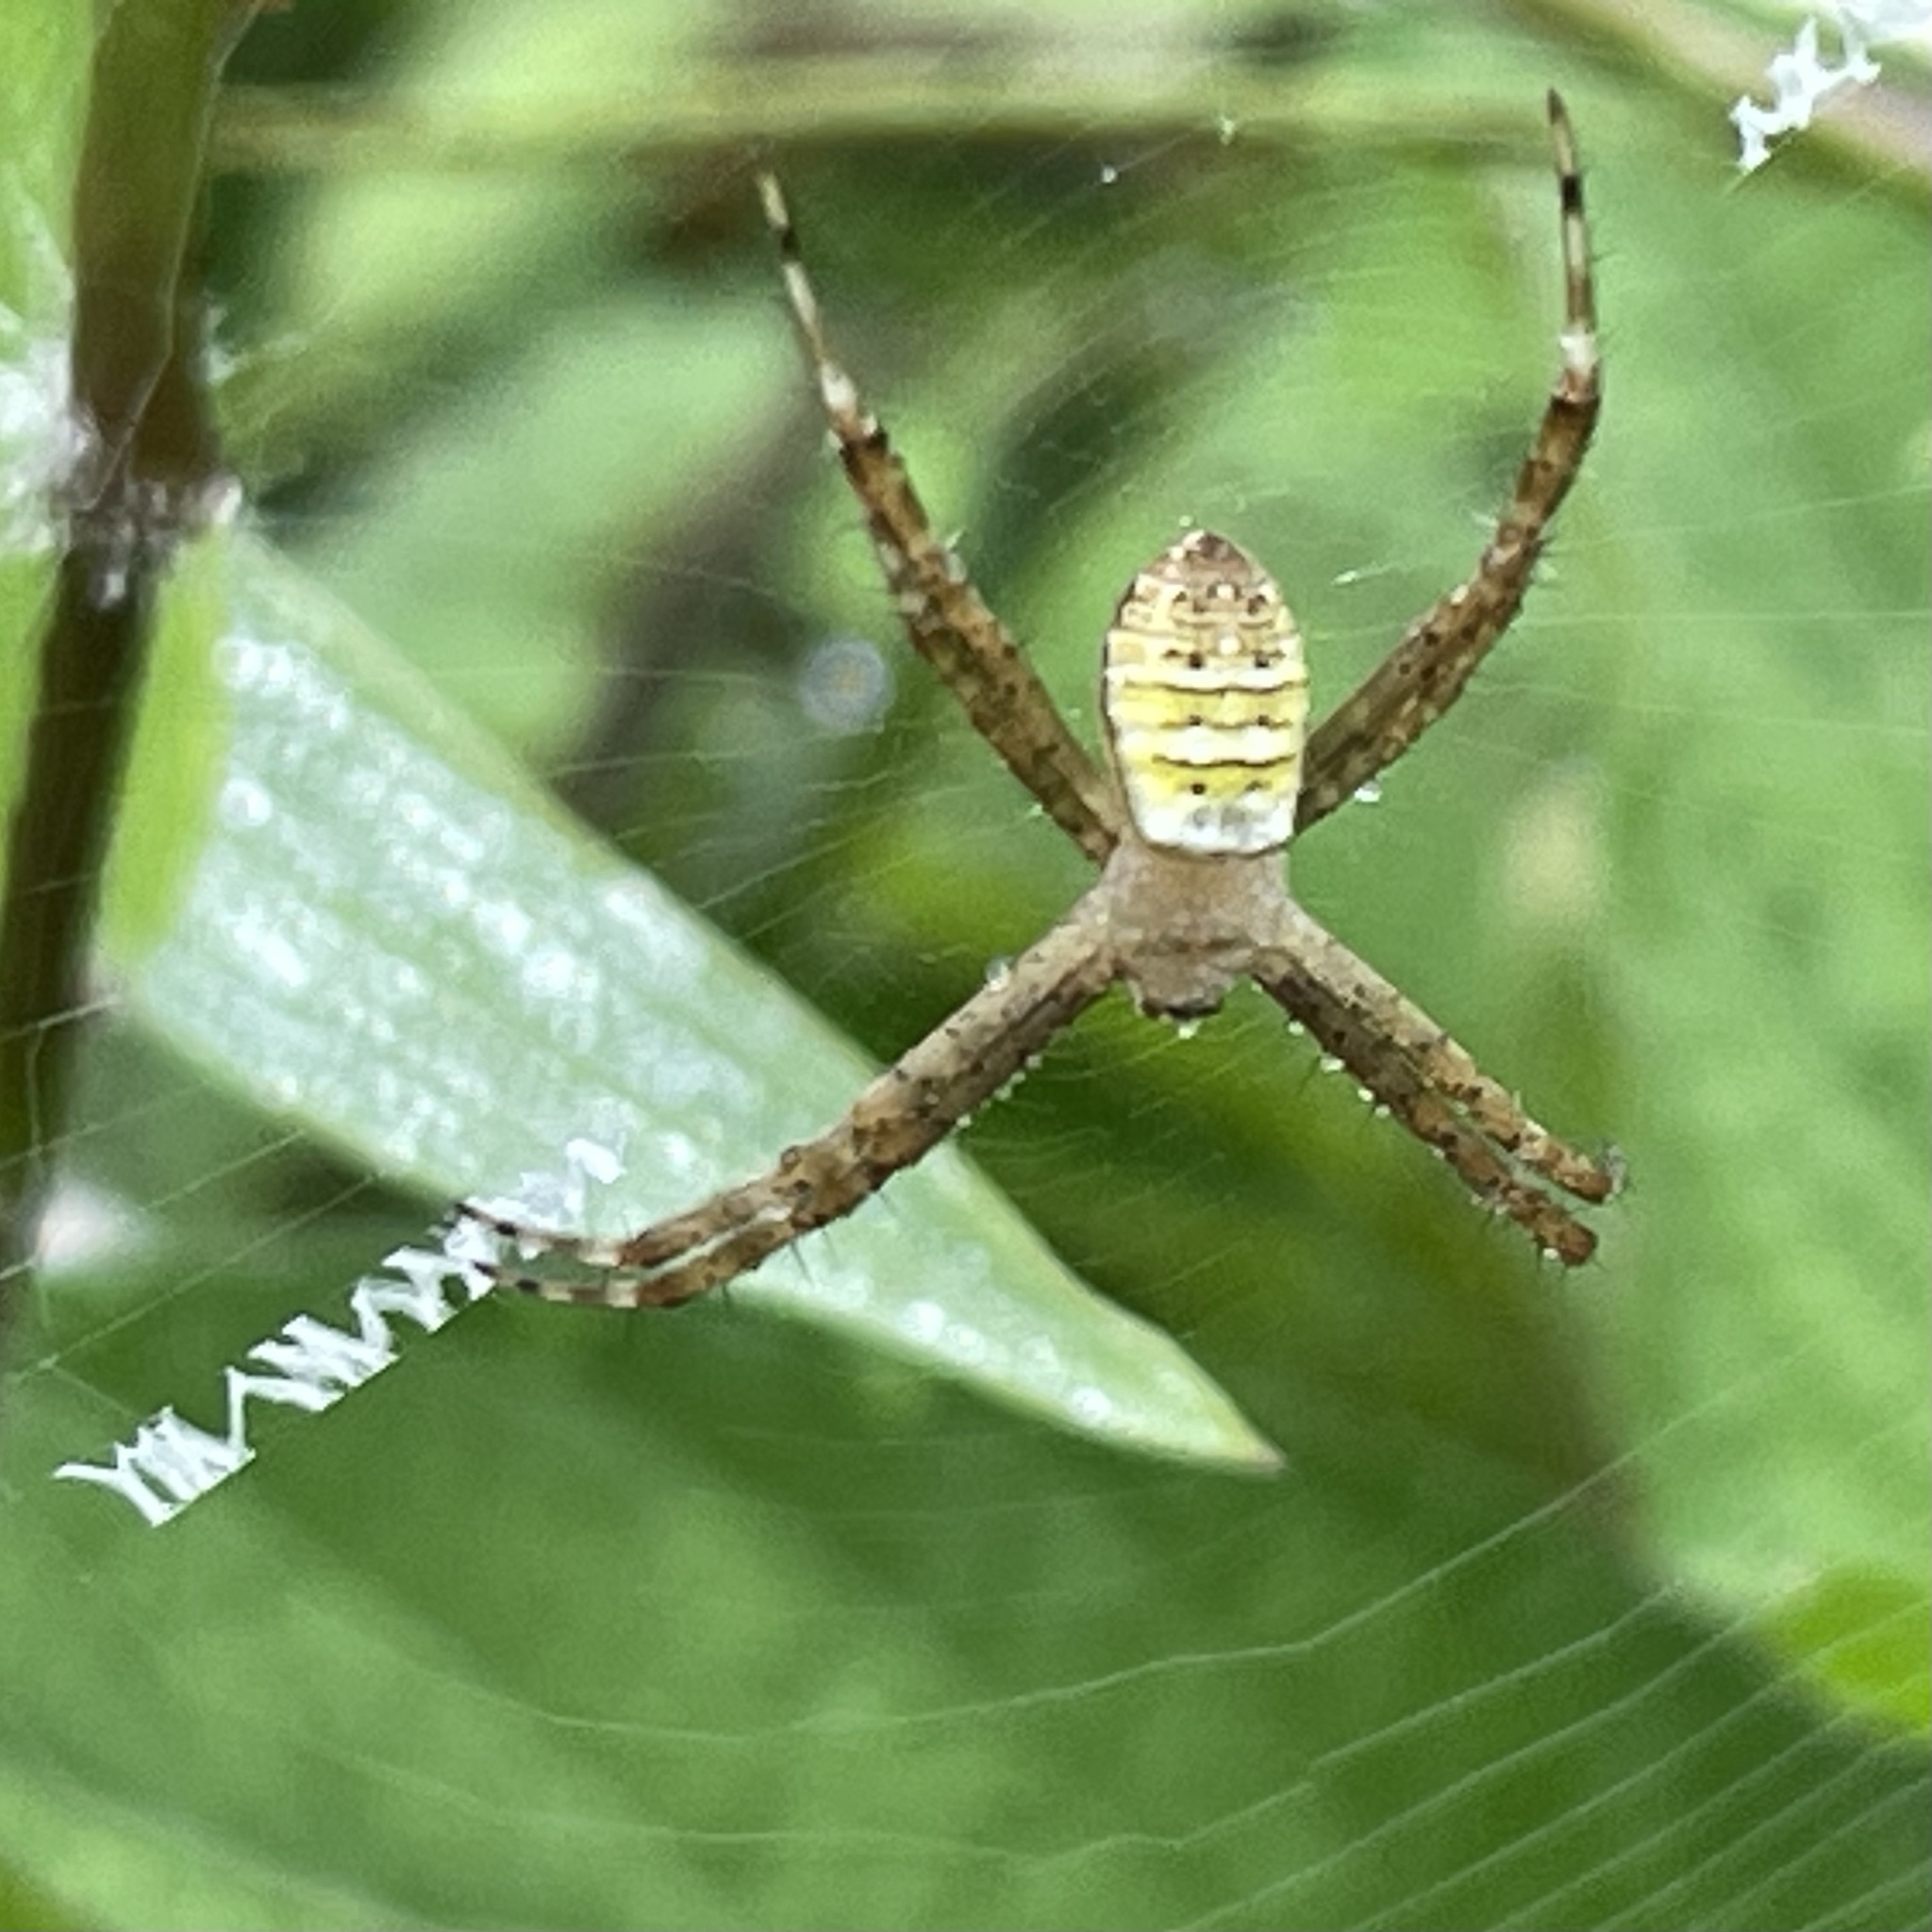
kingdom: Animalia
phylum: Arthropoda
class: Arachnida
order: Araneae
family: Araneidae
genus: Argiope
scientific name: Argiope aemula
